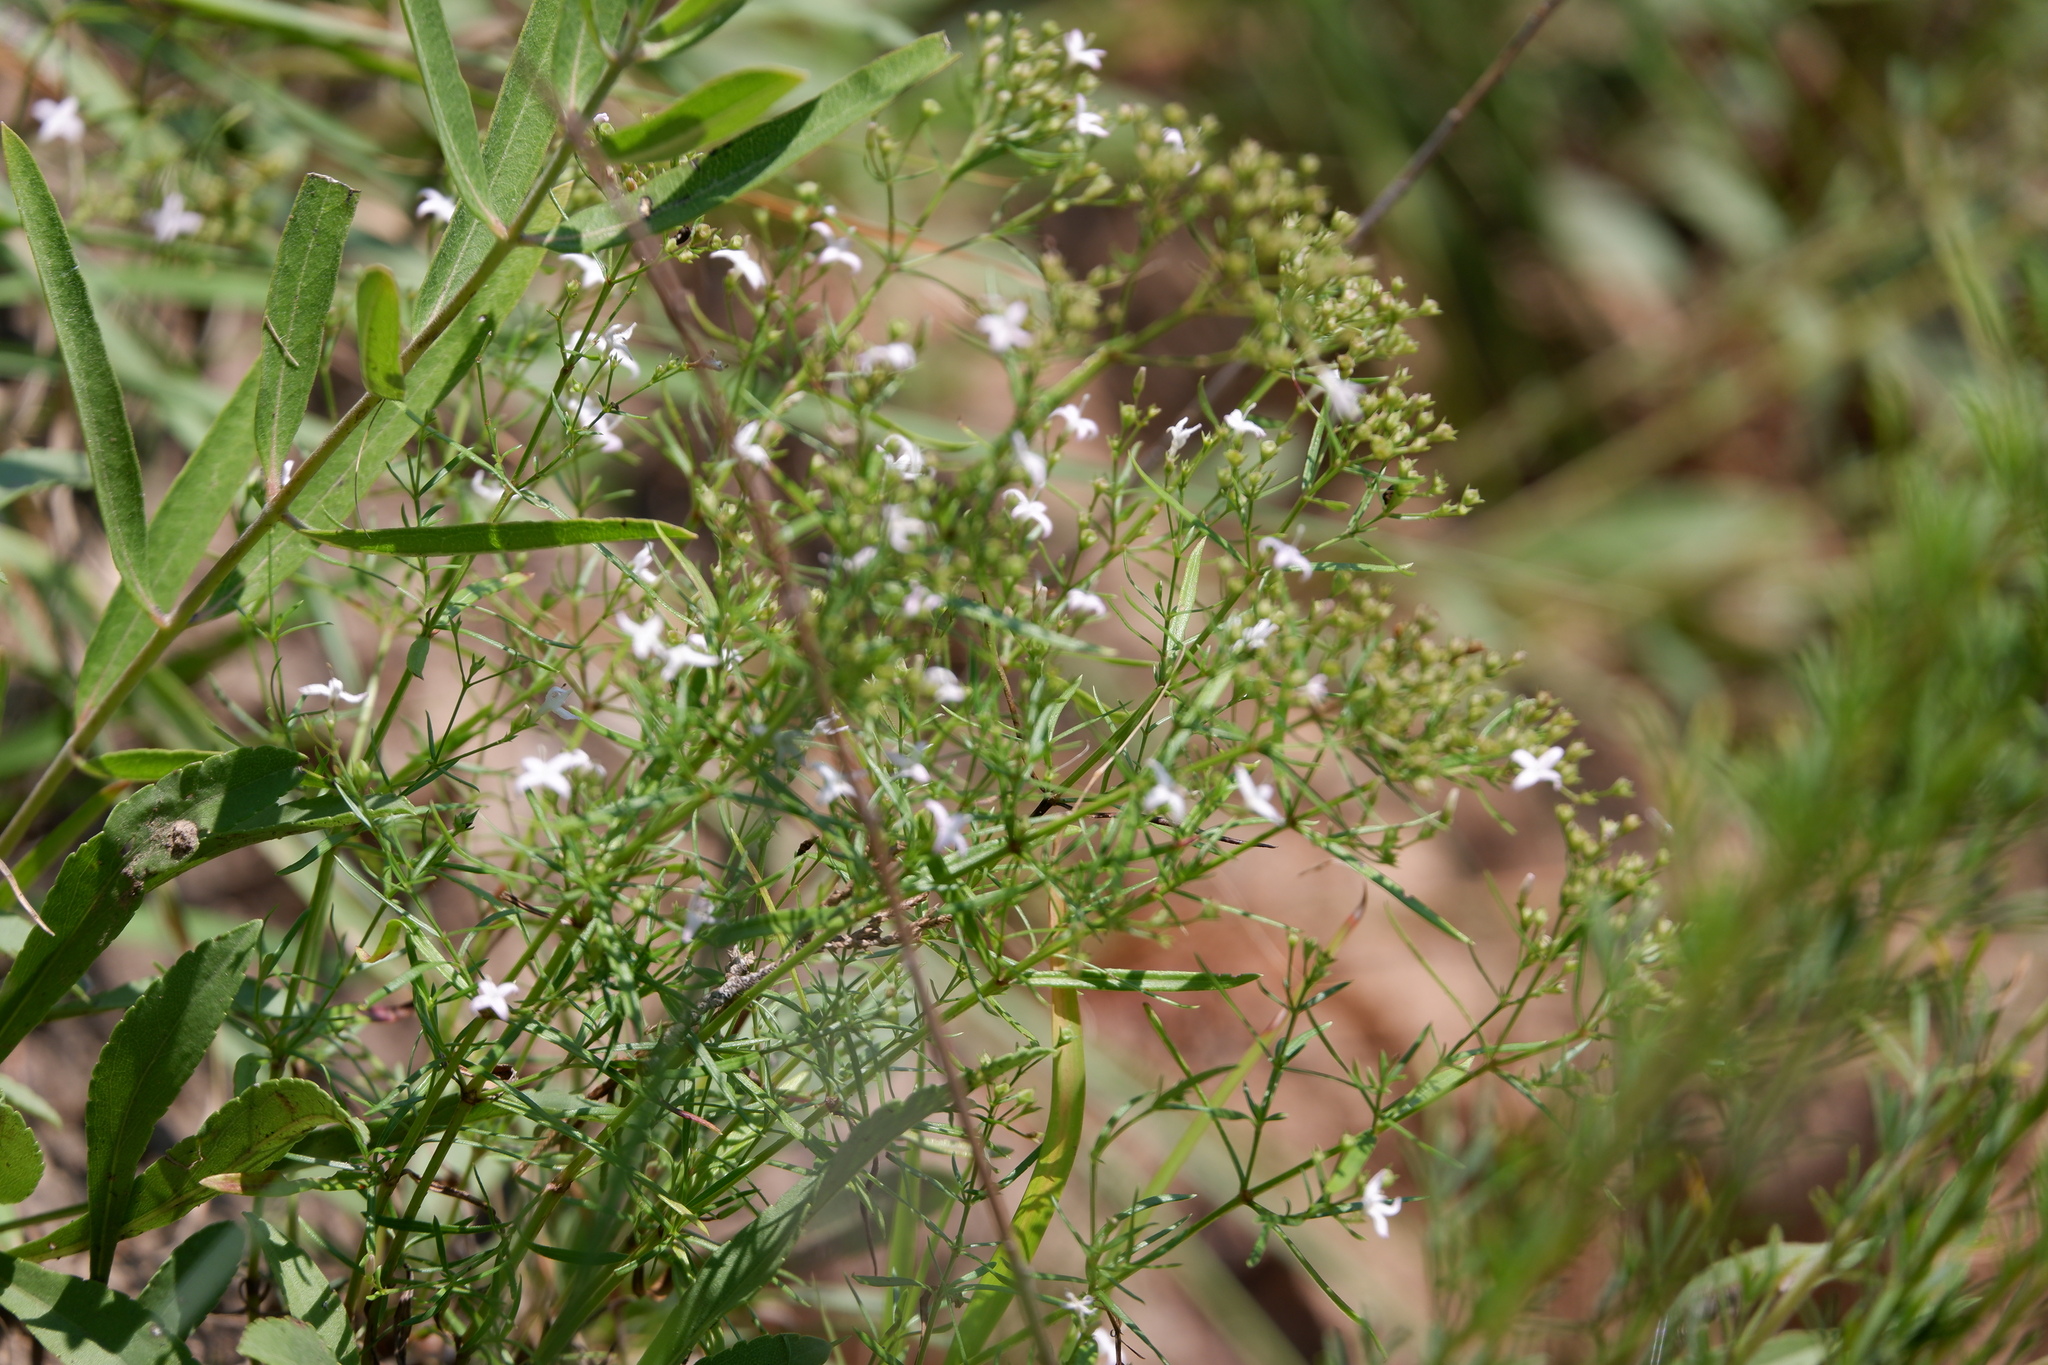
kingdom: Plantae
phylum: Tracheophyta
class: Magnoliopsida
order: Gentianales
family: Rubiaceae
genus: Stenaria
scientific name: Stenaria nigricans
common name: Diamondflowers
